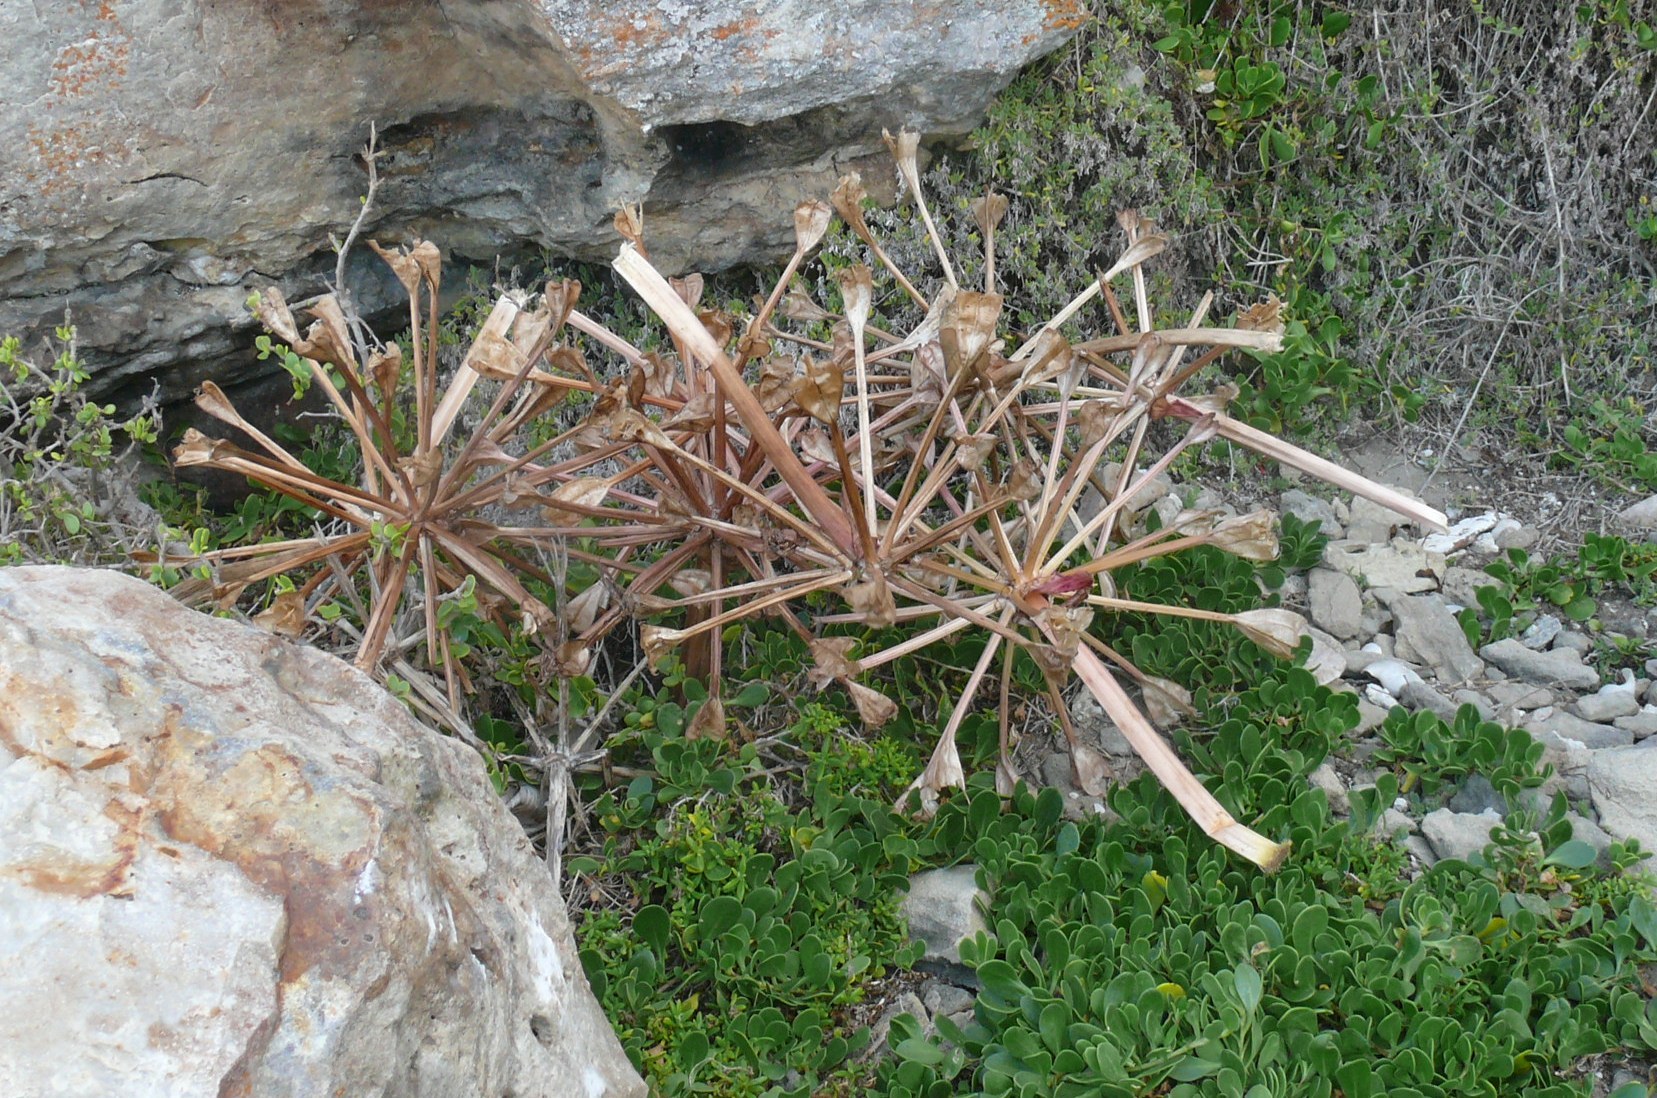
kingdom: Plantae
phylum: Tracheophyta
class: Liliopsida
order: Asparagales
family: Amaryllidaceae
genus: Brunsvigia
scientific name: Brunsvigia orientalis
